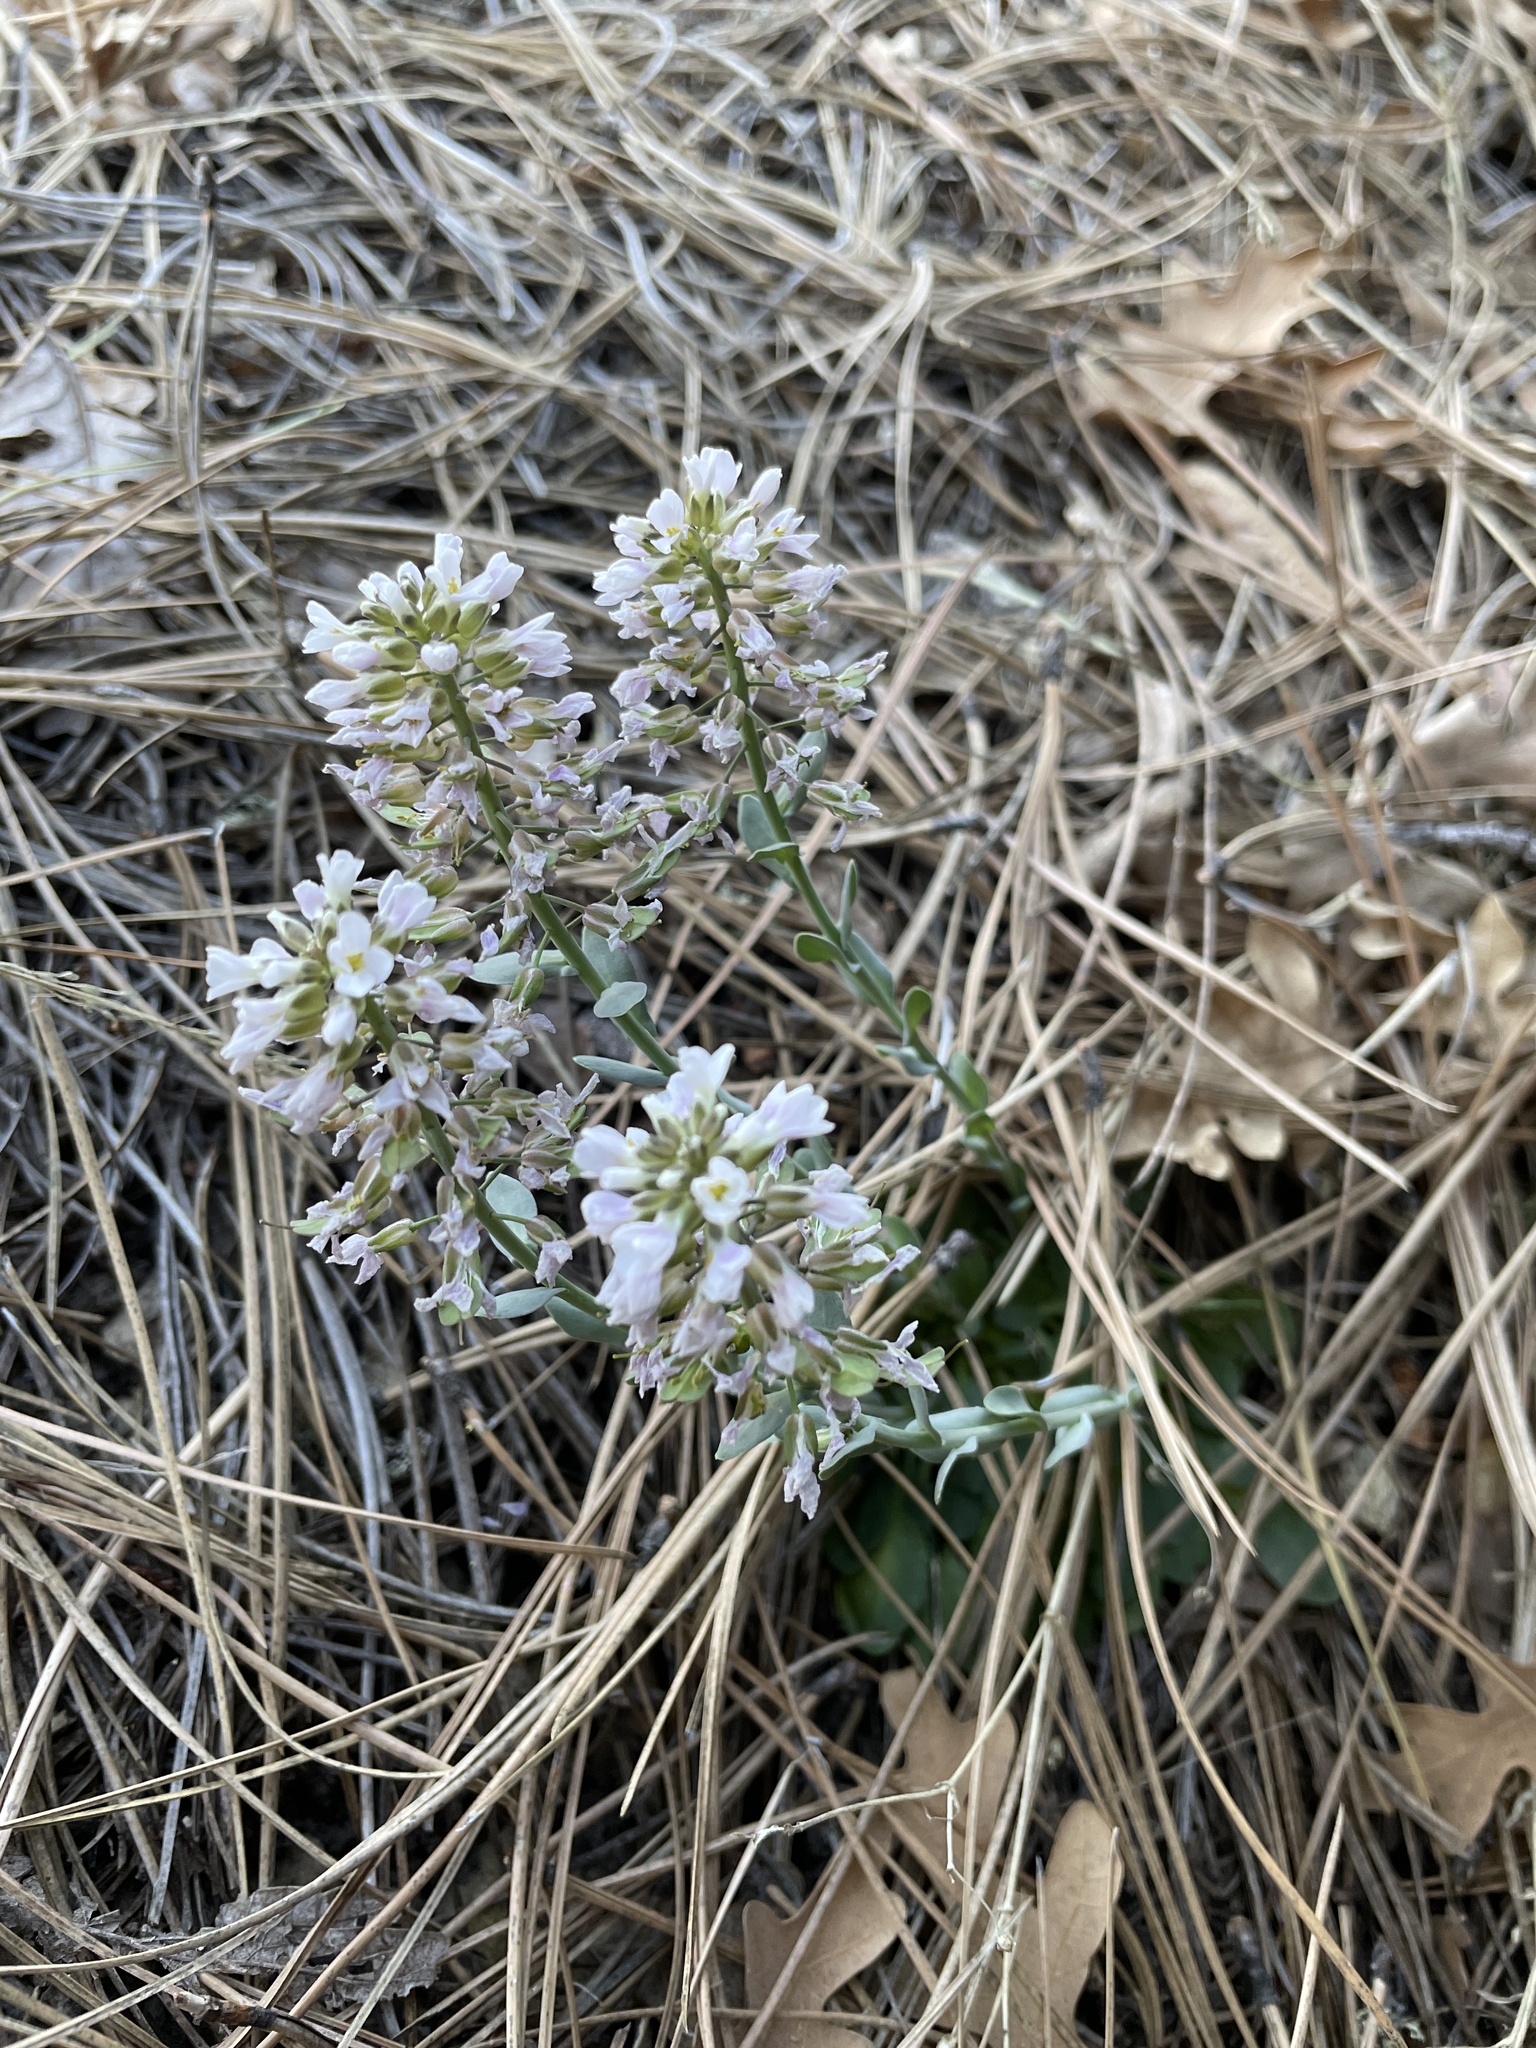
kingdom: Plantae
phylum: Tracheophyta
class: Magnoliopsida
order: Brassicales
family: Brassicaceae
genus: Noccaea
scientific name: Noccaea fendleri
